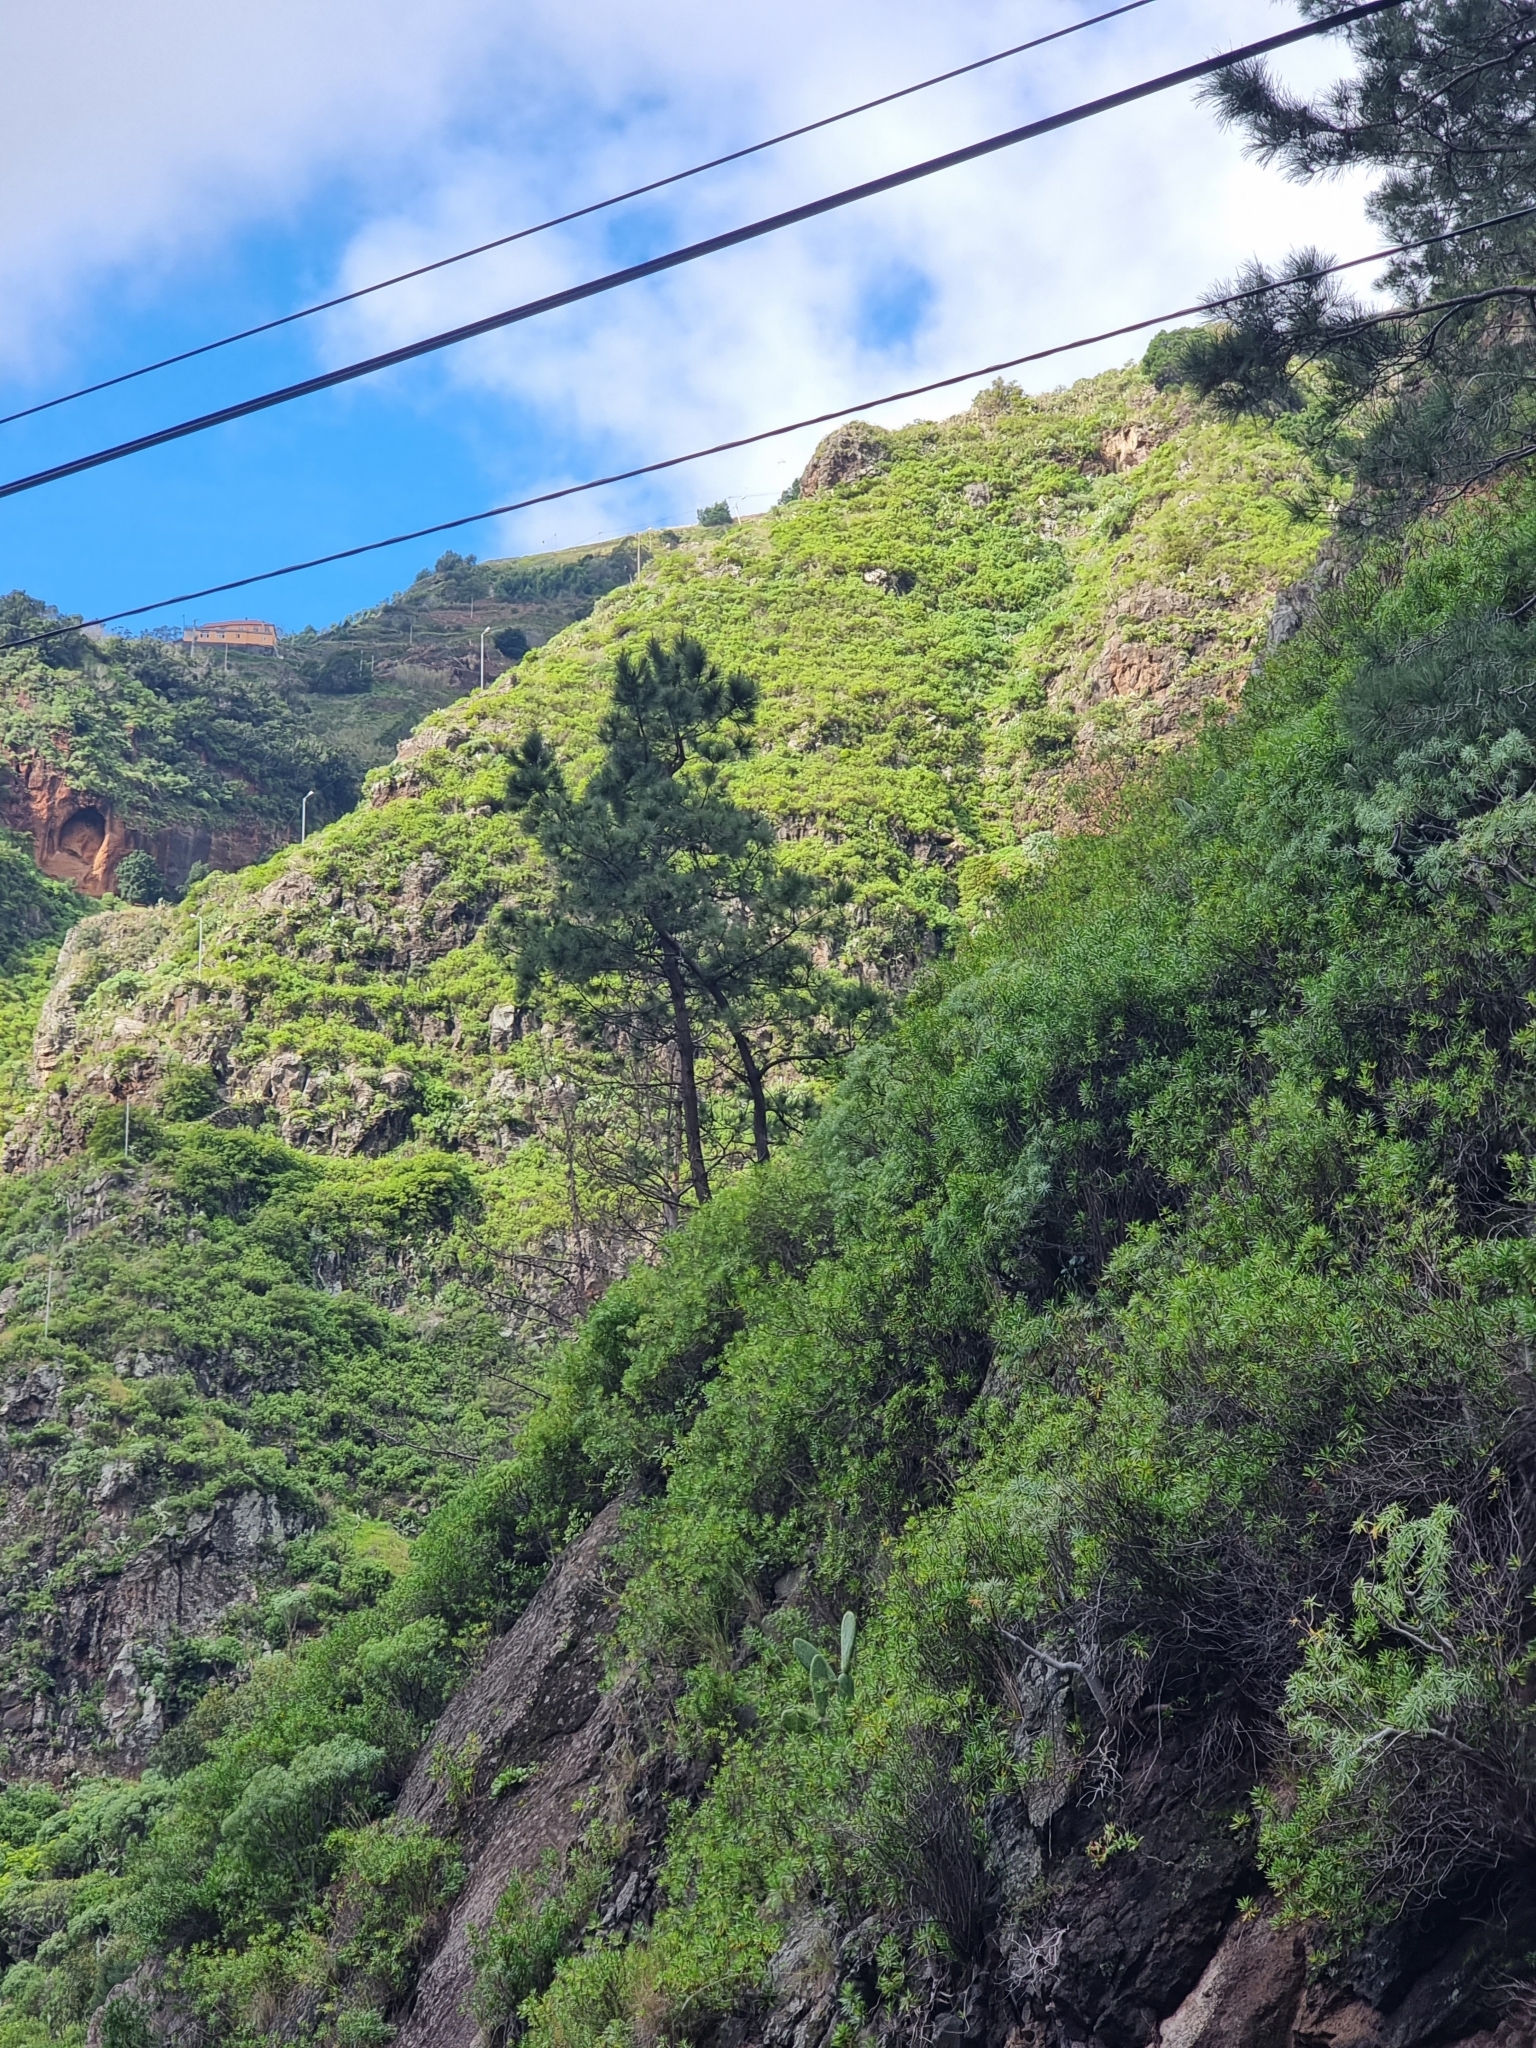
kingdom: Plantae
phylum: Tracheophyta
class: Pinopsida
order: Pinales
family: Pinaceae
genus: Pinus
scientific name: Pinus pinaster
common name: Maritime pine
